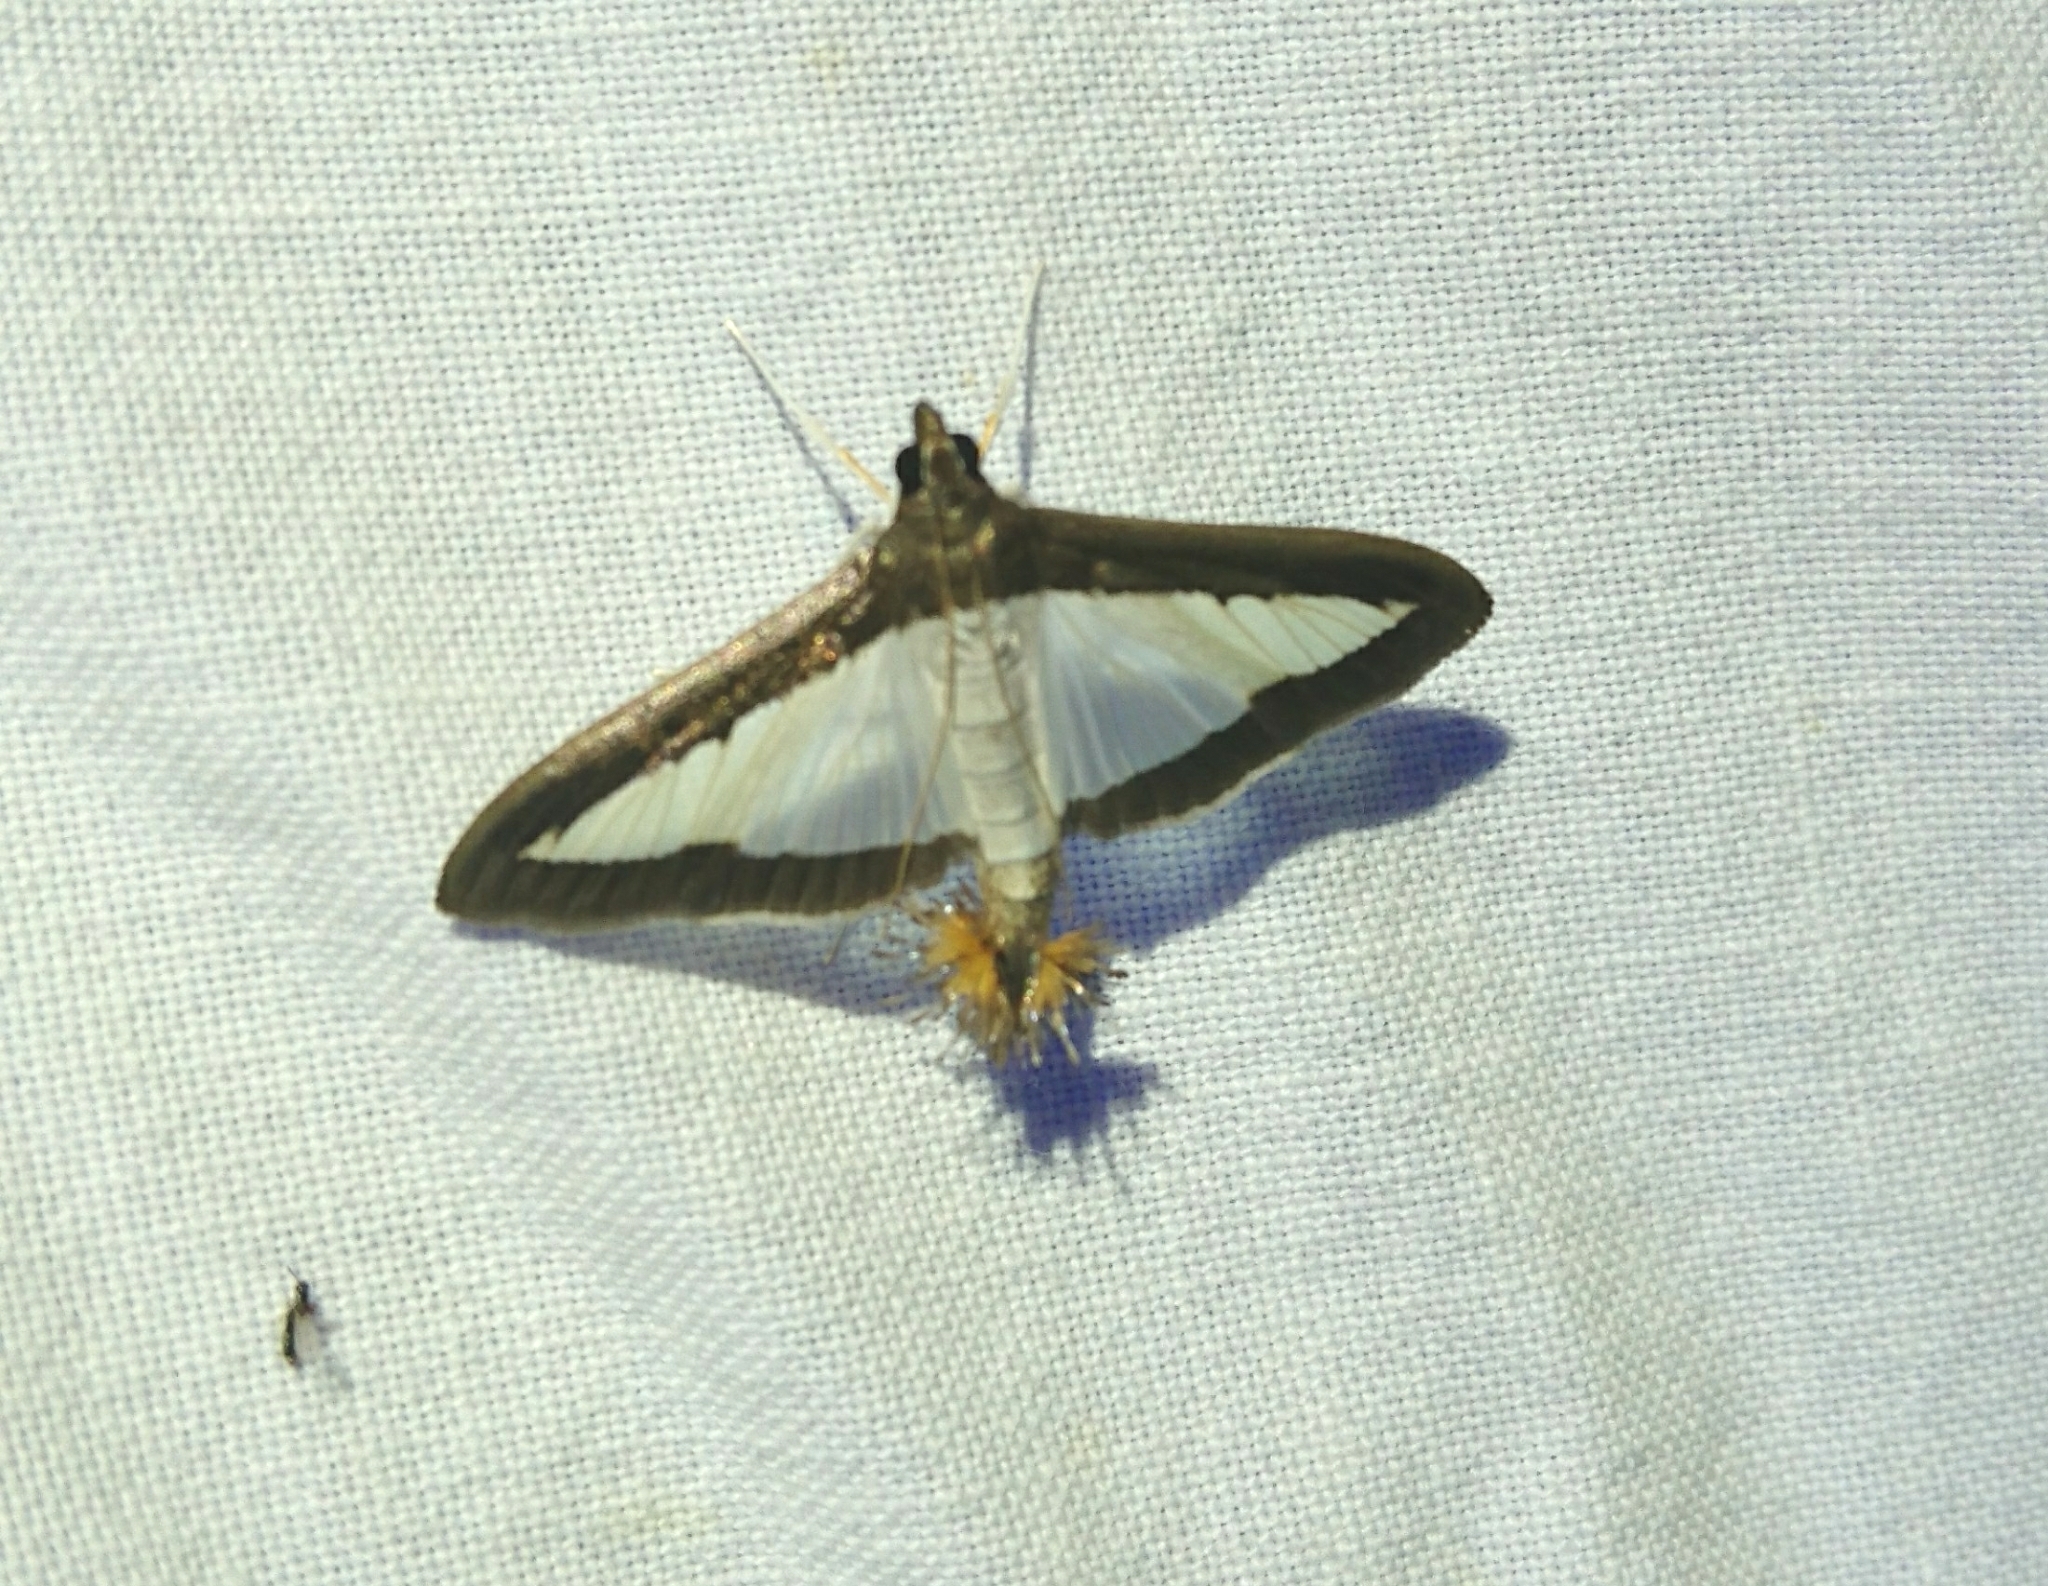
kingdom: Animalia
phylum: Arthropoda
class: Insecta
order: Lepidoptera
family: Crambidae
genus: Diaphania
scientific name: Diaphania hyalinata
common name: Melonworm
